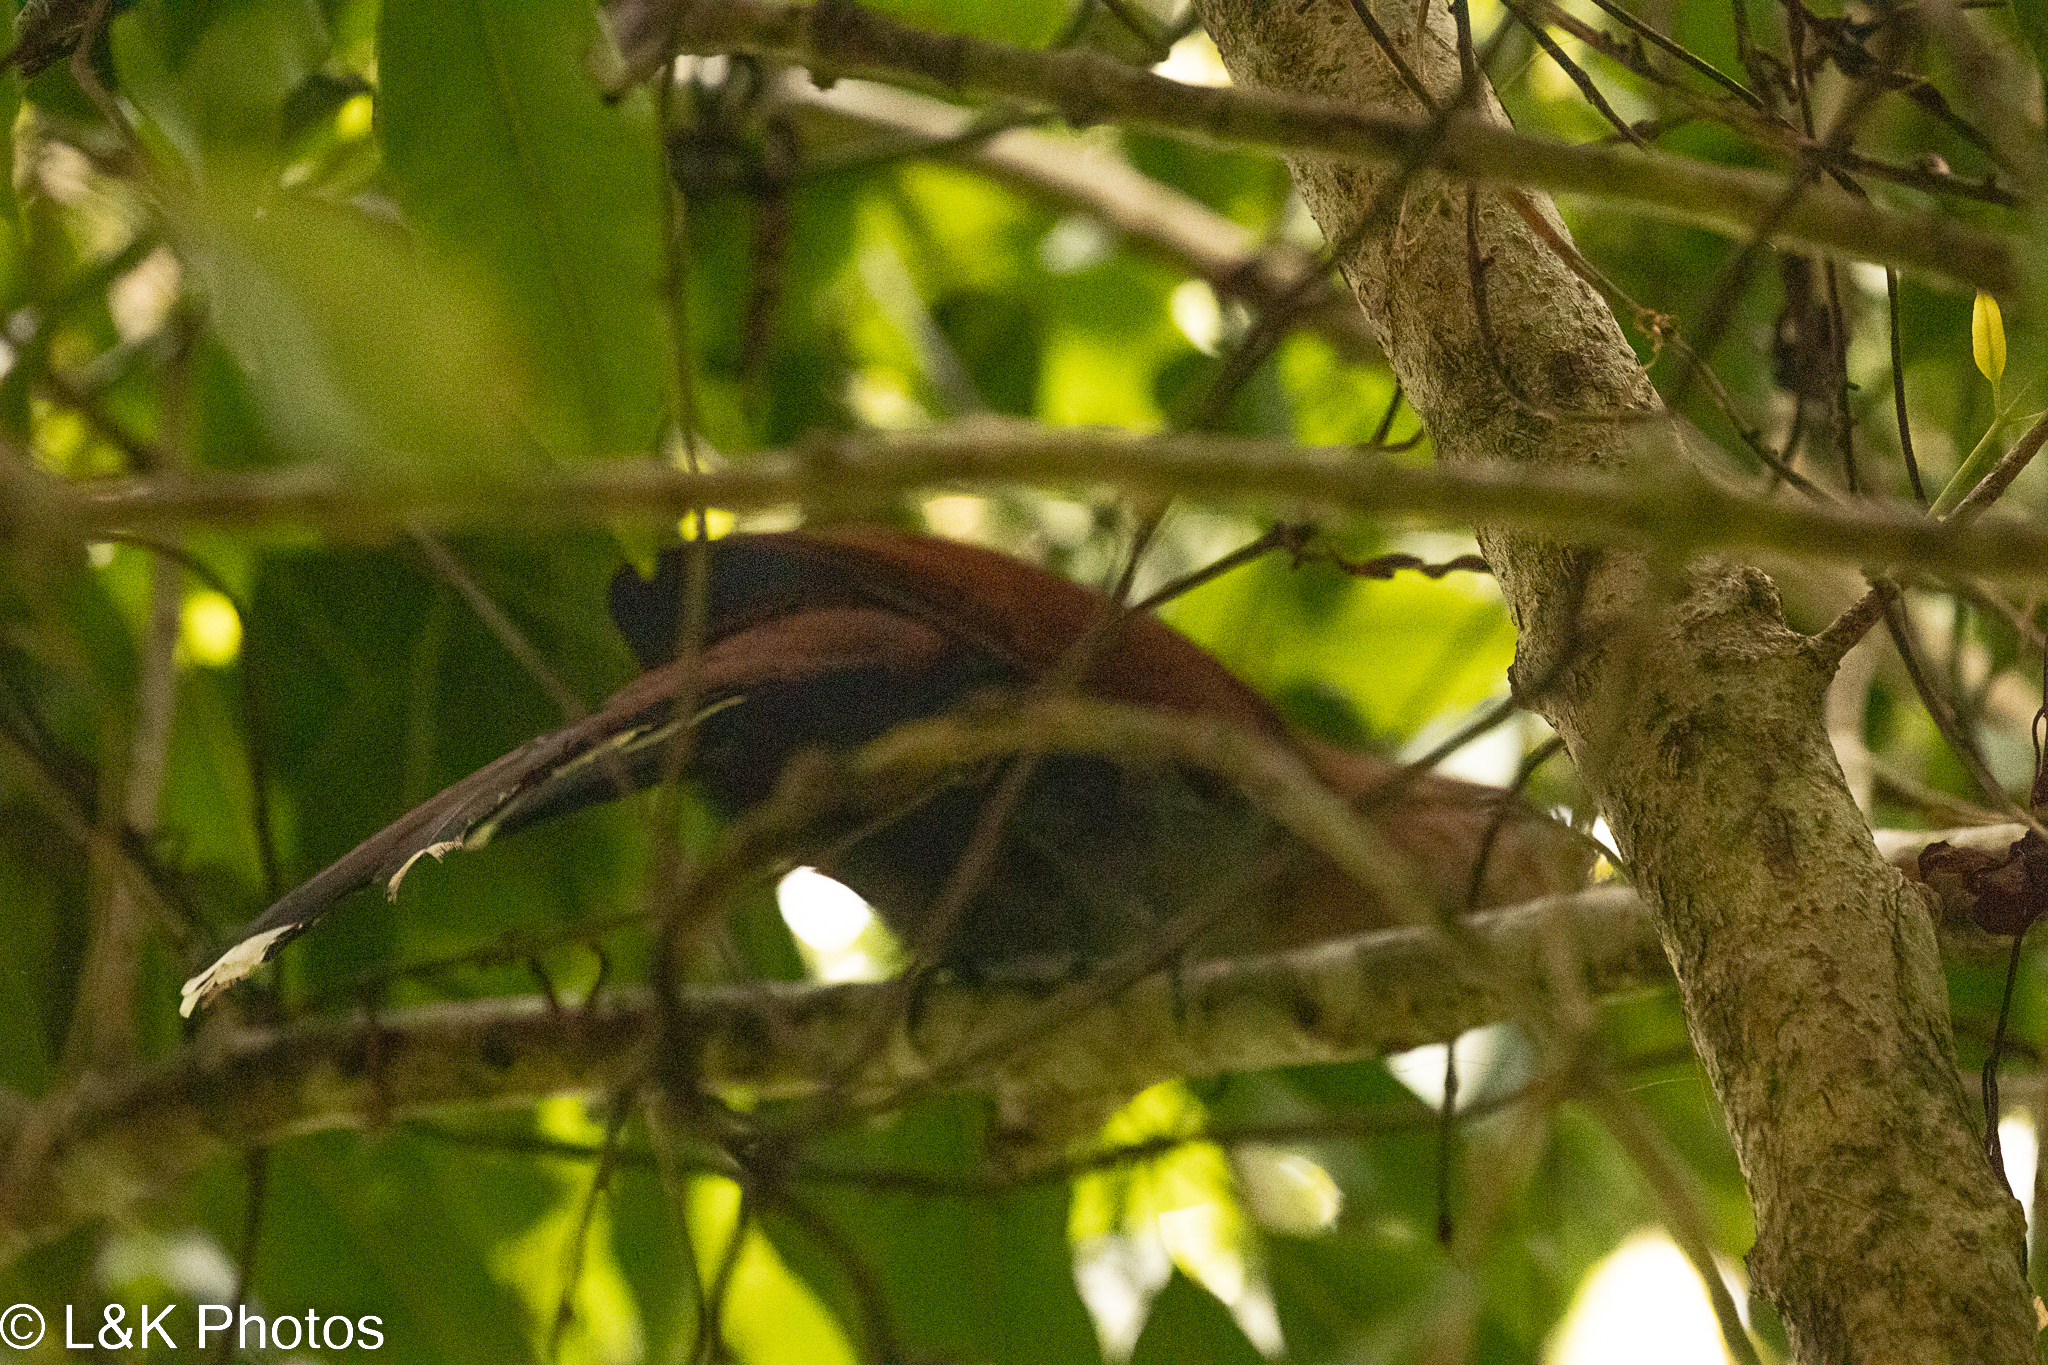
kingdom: Animalia
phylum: Chordata
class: Aves
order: Cuculiformes
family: Cuculidae
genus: Piaya
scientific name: Piaya cayana
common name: Squirrel cuckoo
